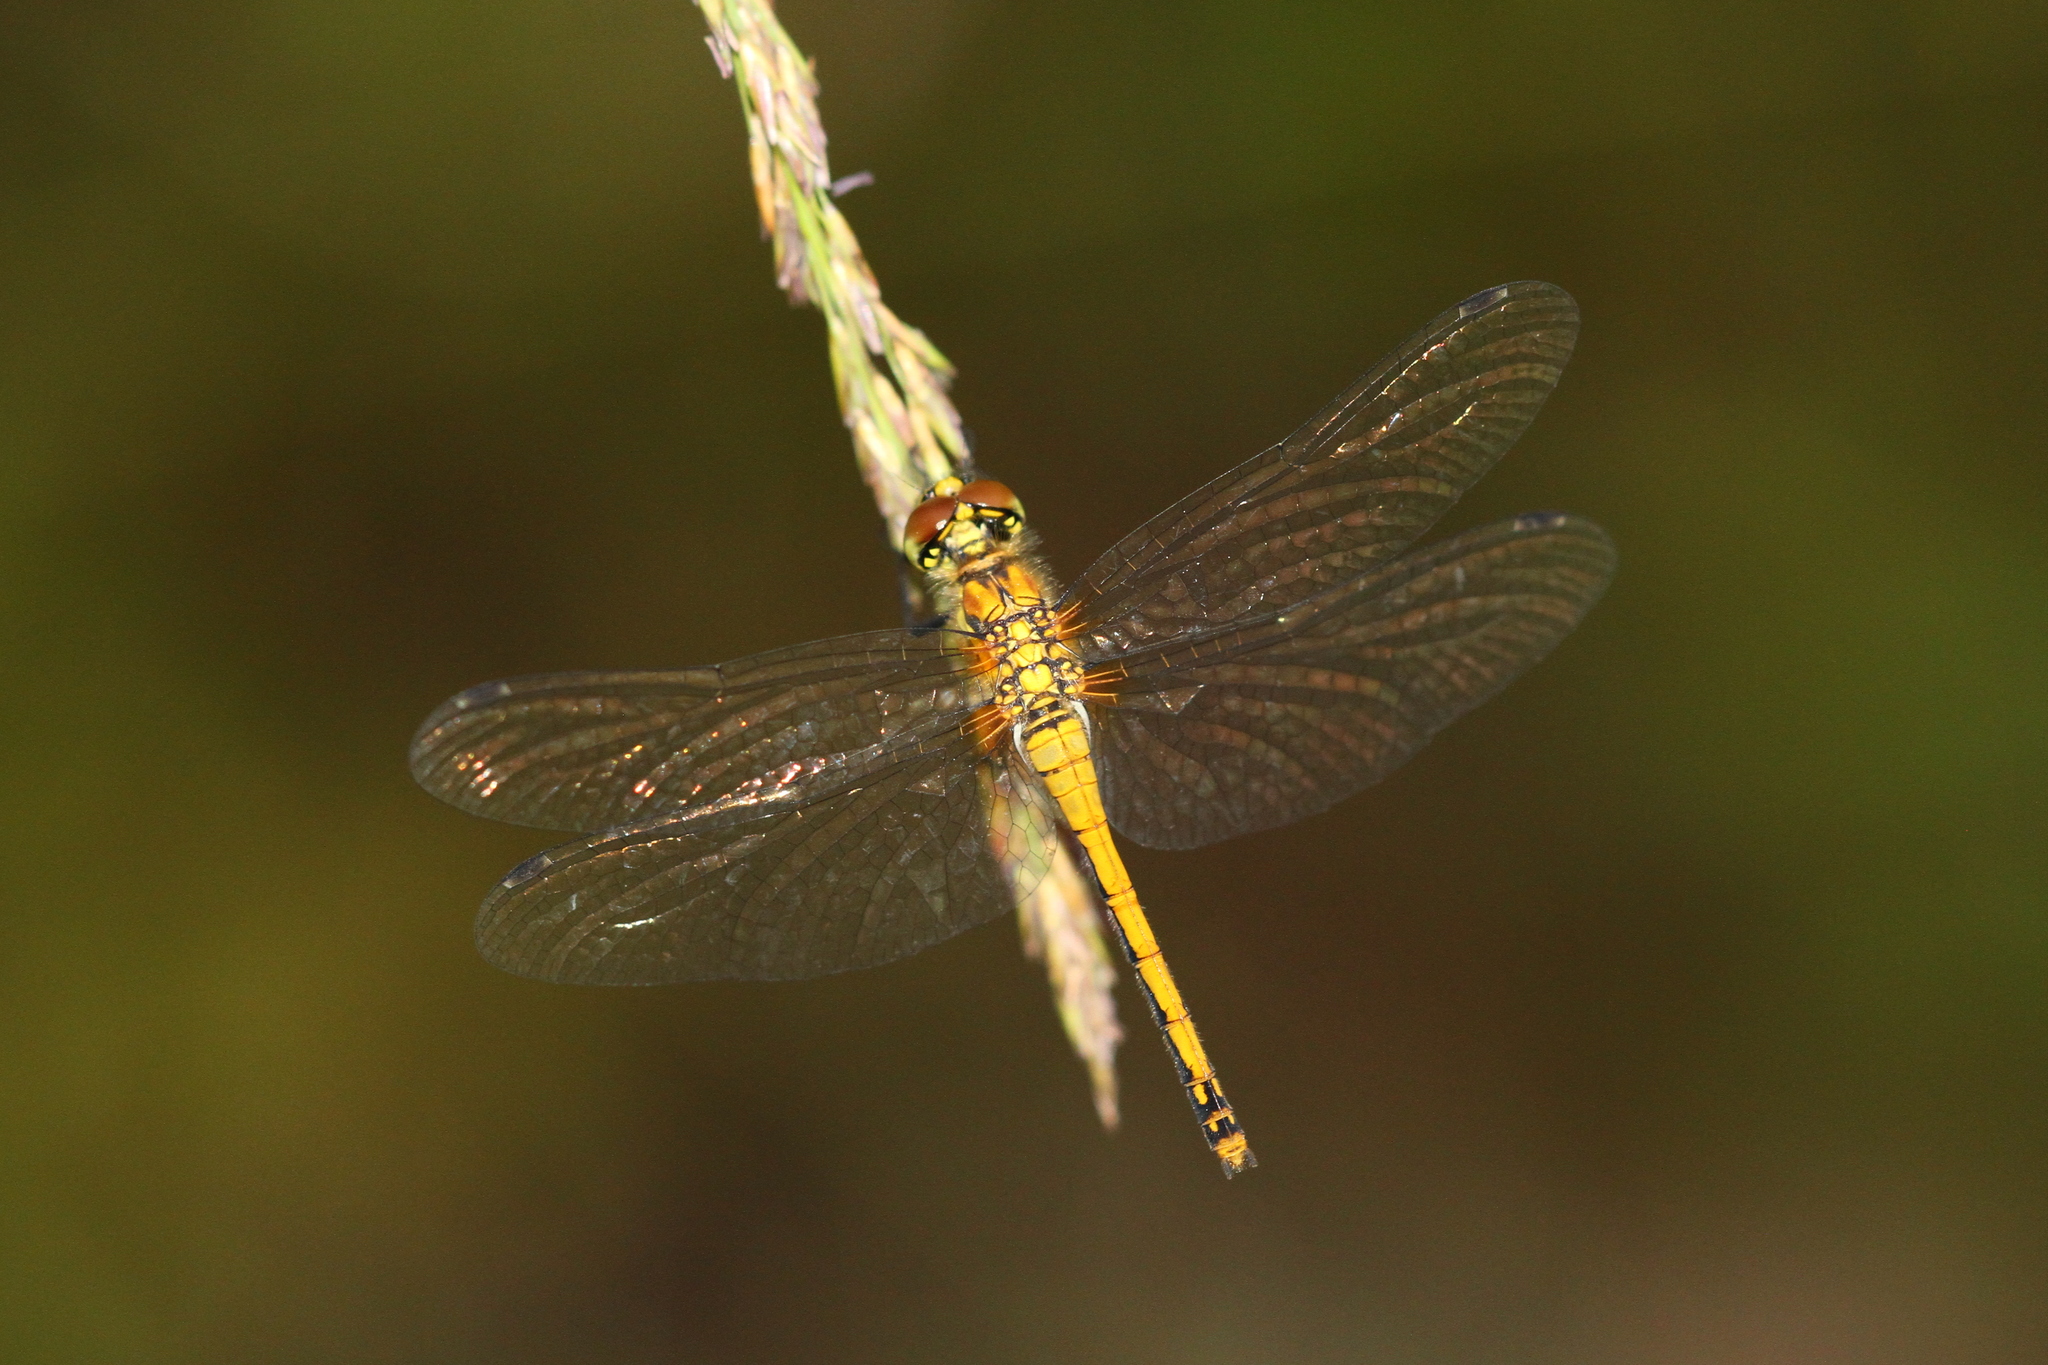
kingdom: Animalia
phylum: Arthropoda
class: Insecta
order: Odonata
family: Libellulidae
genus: Sympetrum
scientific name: Sympetrum danae
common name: Black darter
